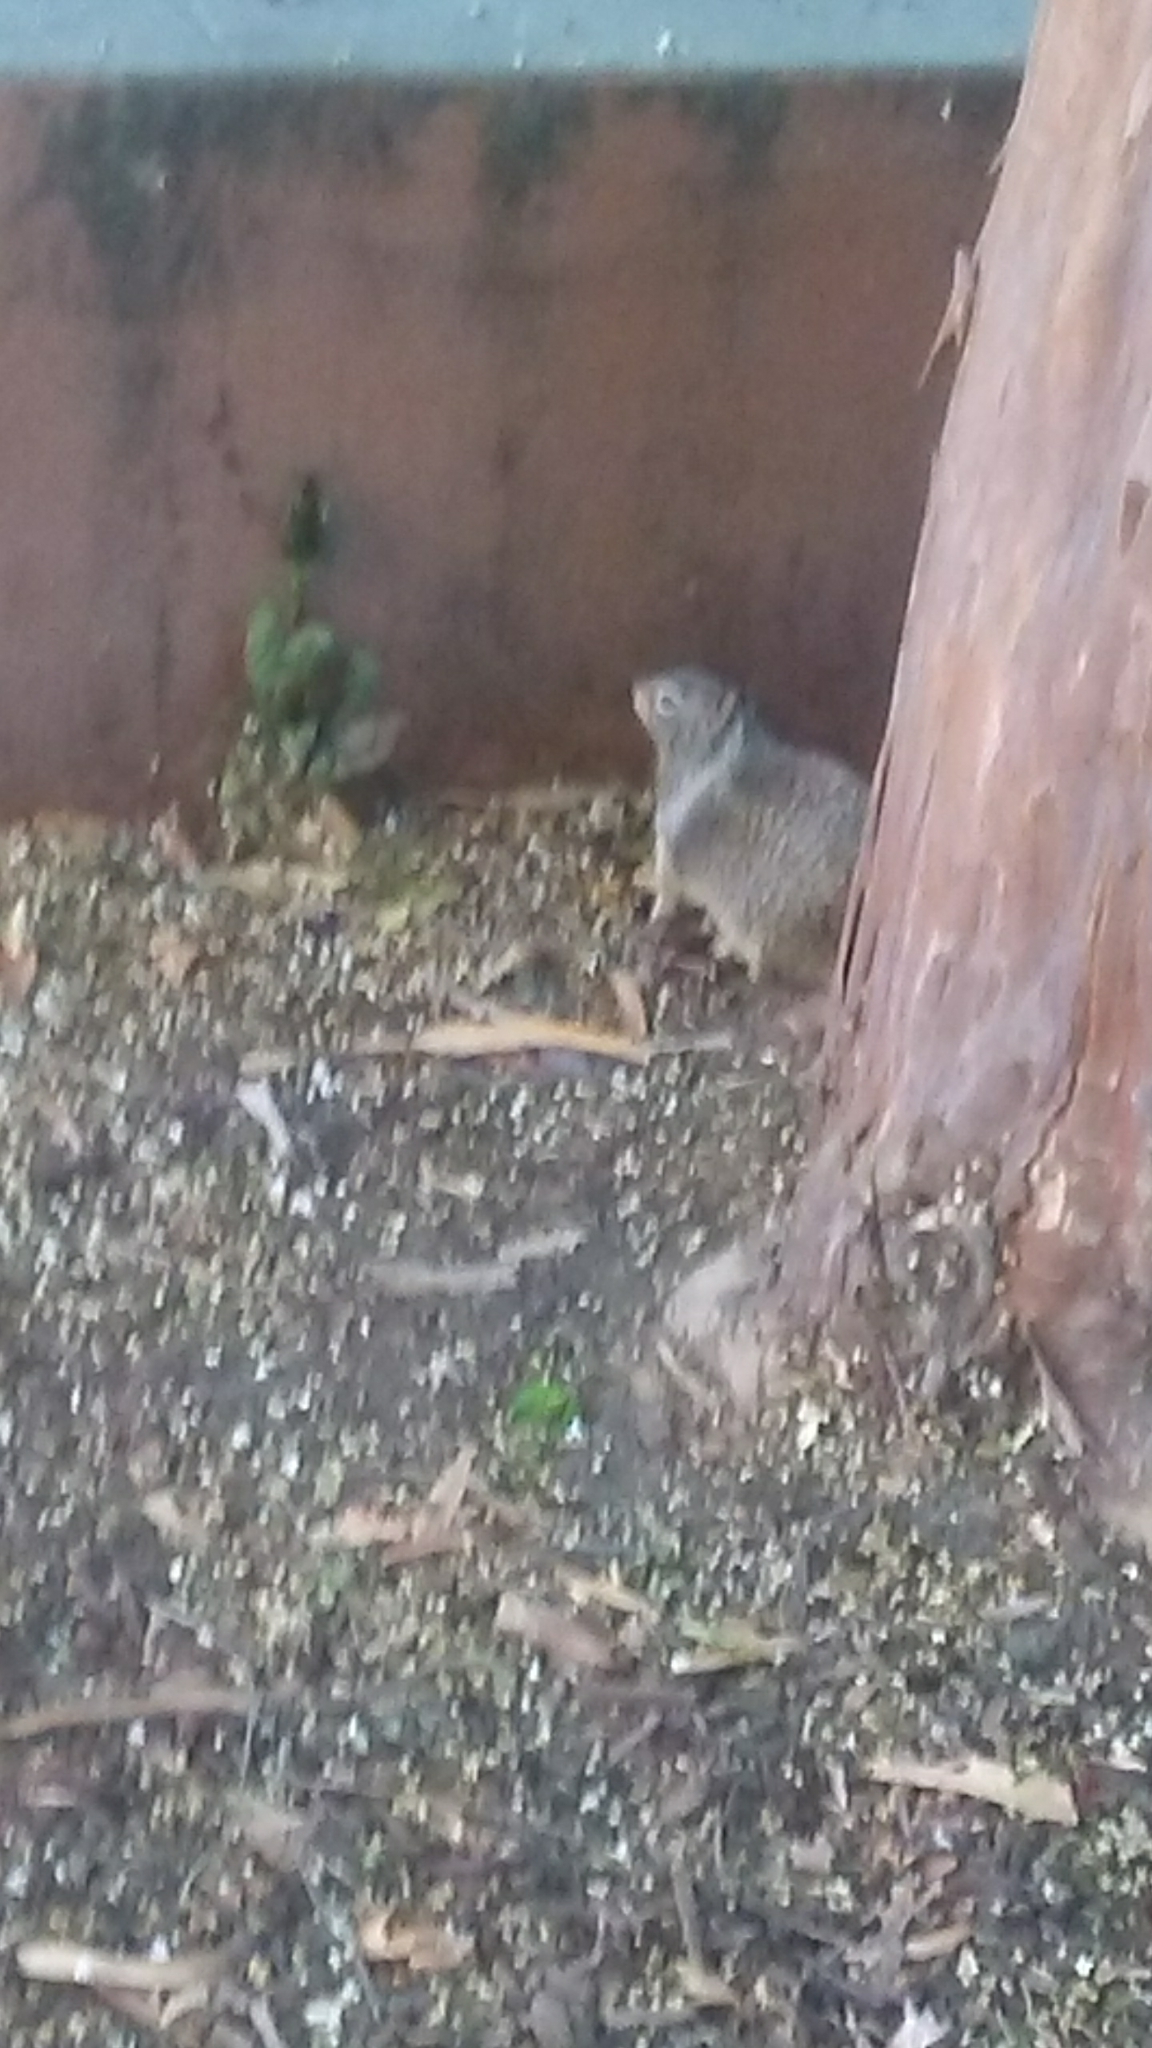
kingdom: Animalia
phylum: Chordata
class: Mammalia
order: Rodentia
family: Sciuridae
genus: Otospermophilus
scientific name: Otospermophilus beecheyi
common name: California ground squirrel
